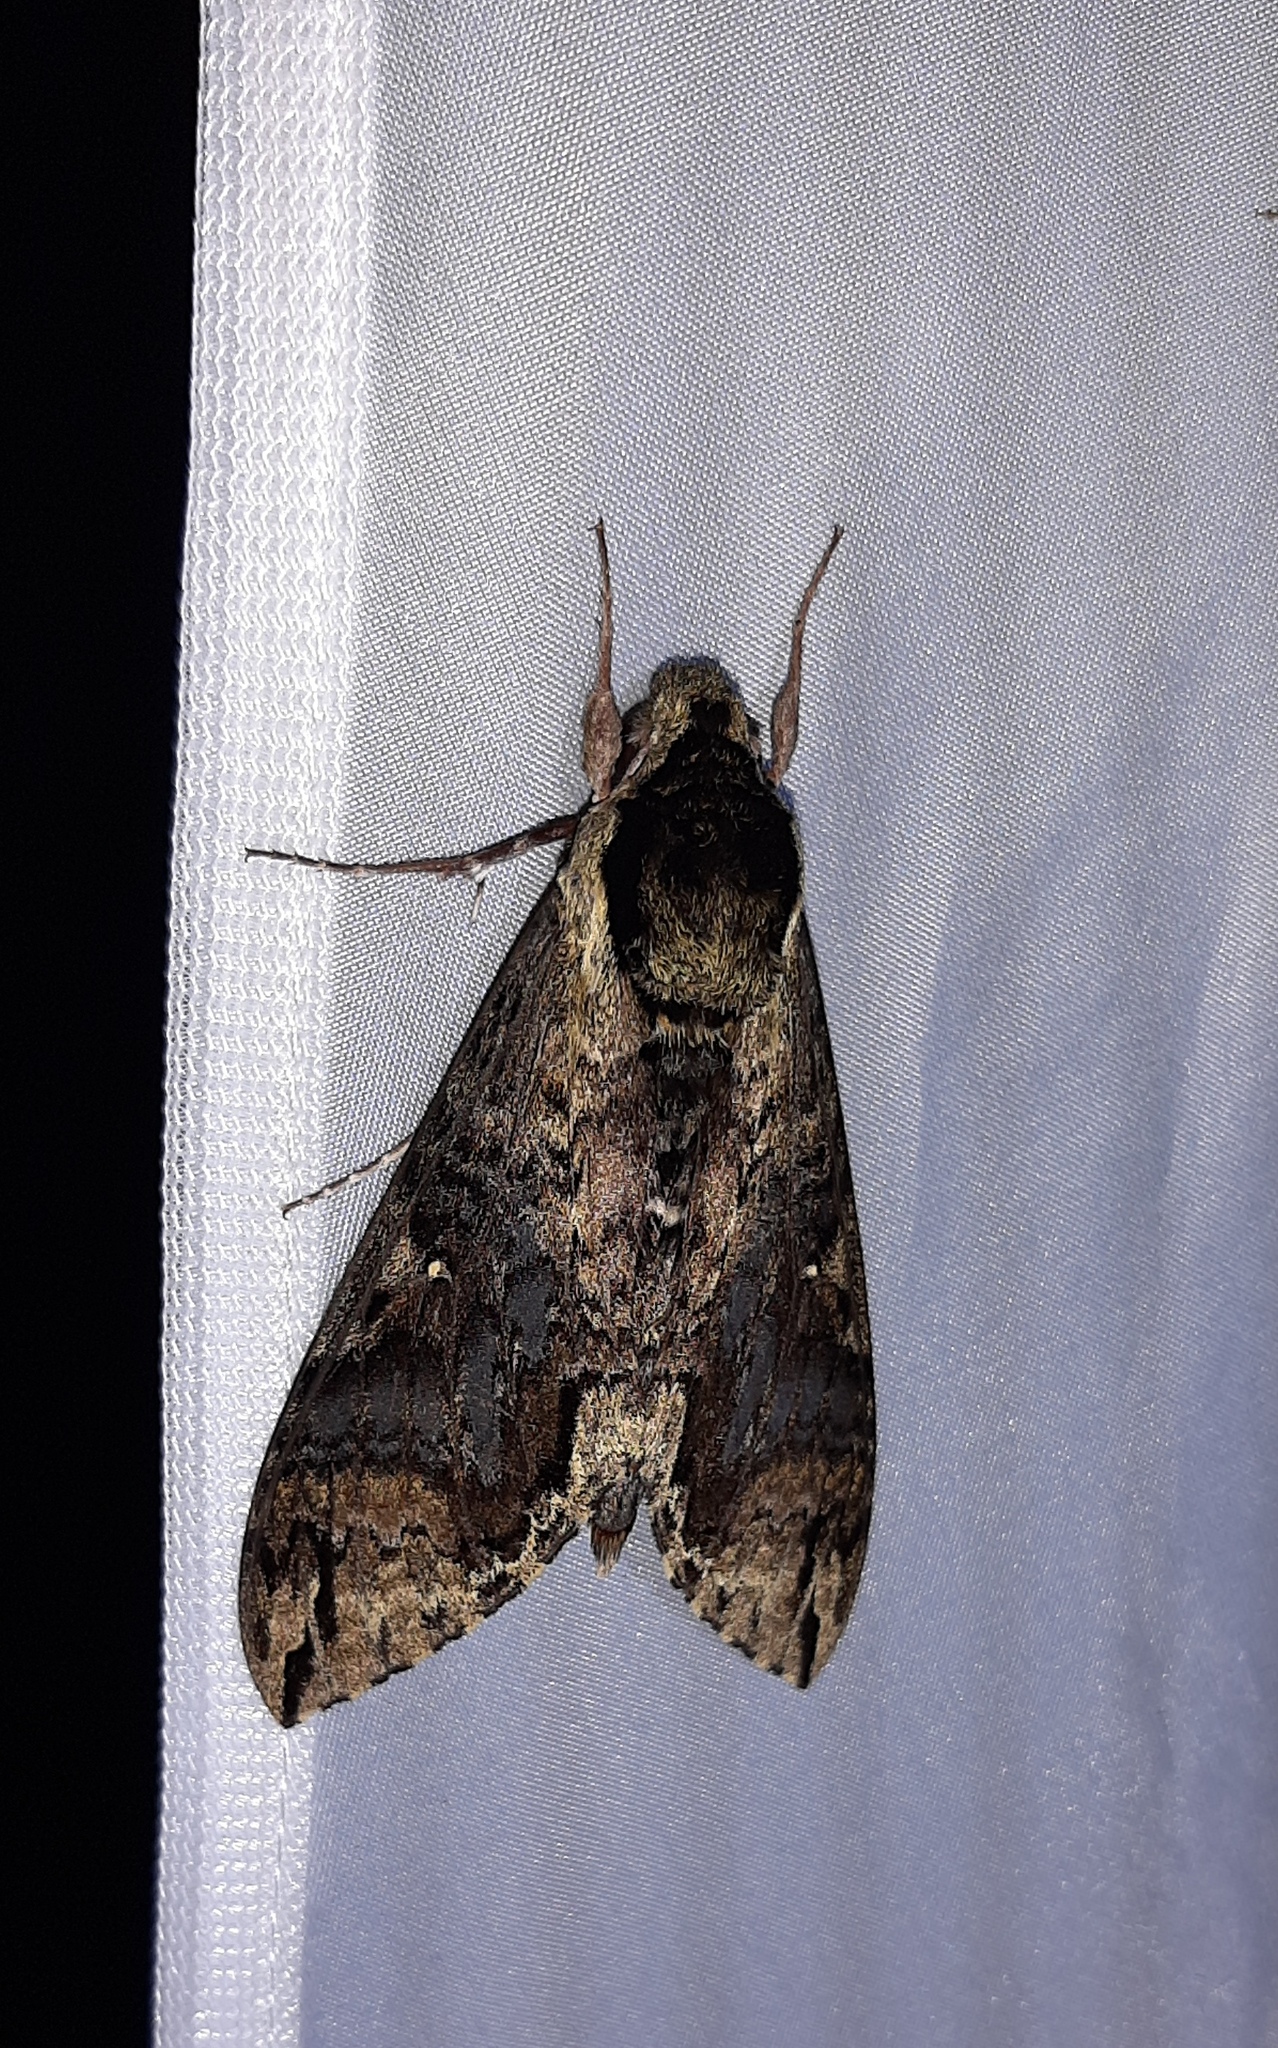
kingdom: Animalia
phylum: Arthropoda
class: Insecta
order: Lepidoptera
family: Sphingidae
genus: Manduca
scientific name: Manduca pellenia
